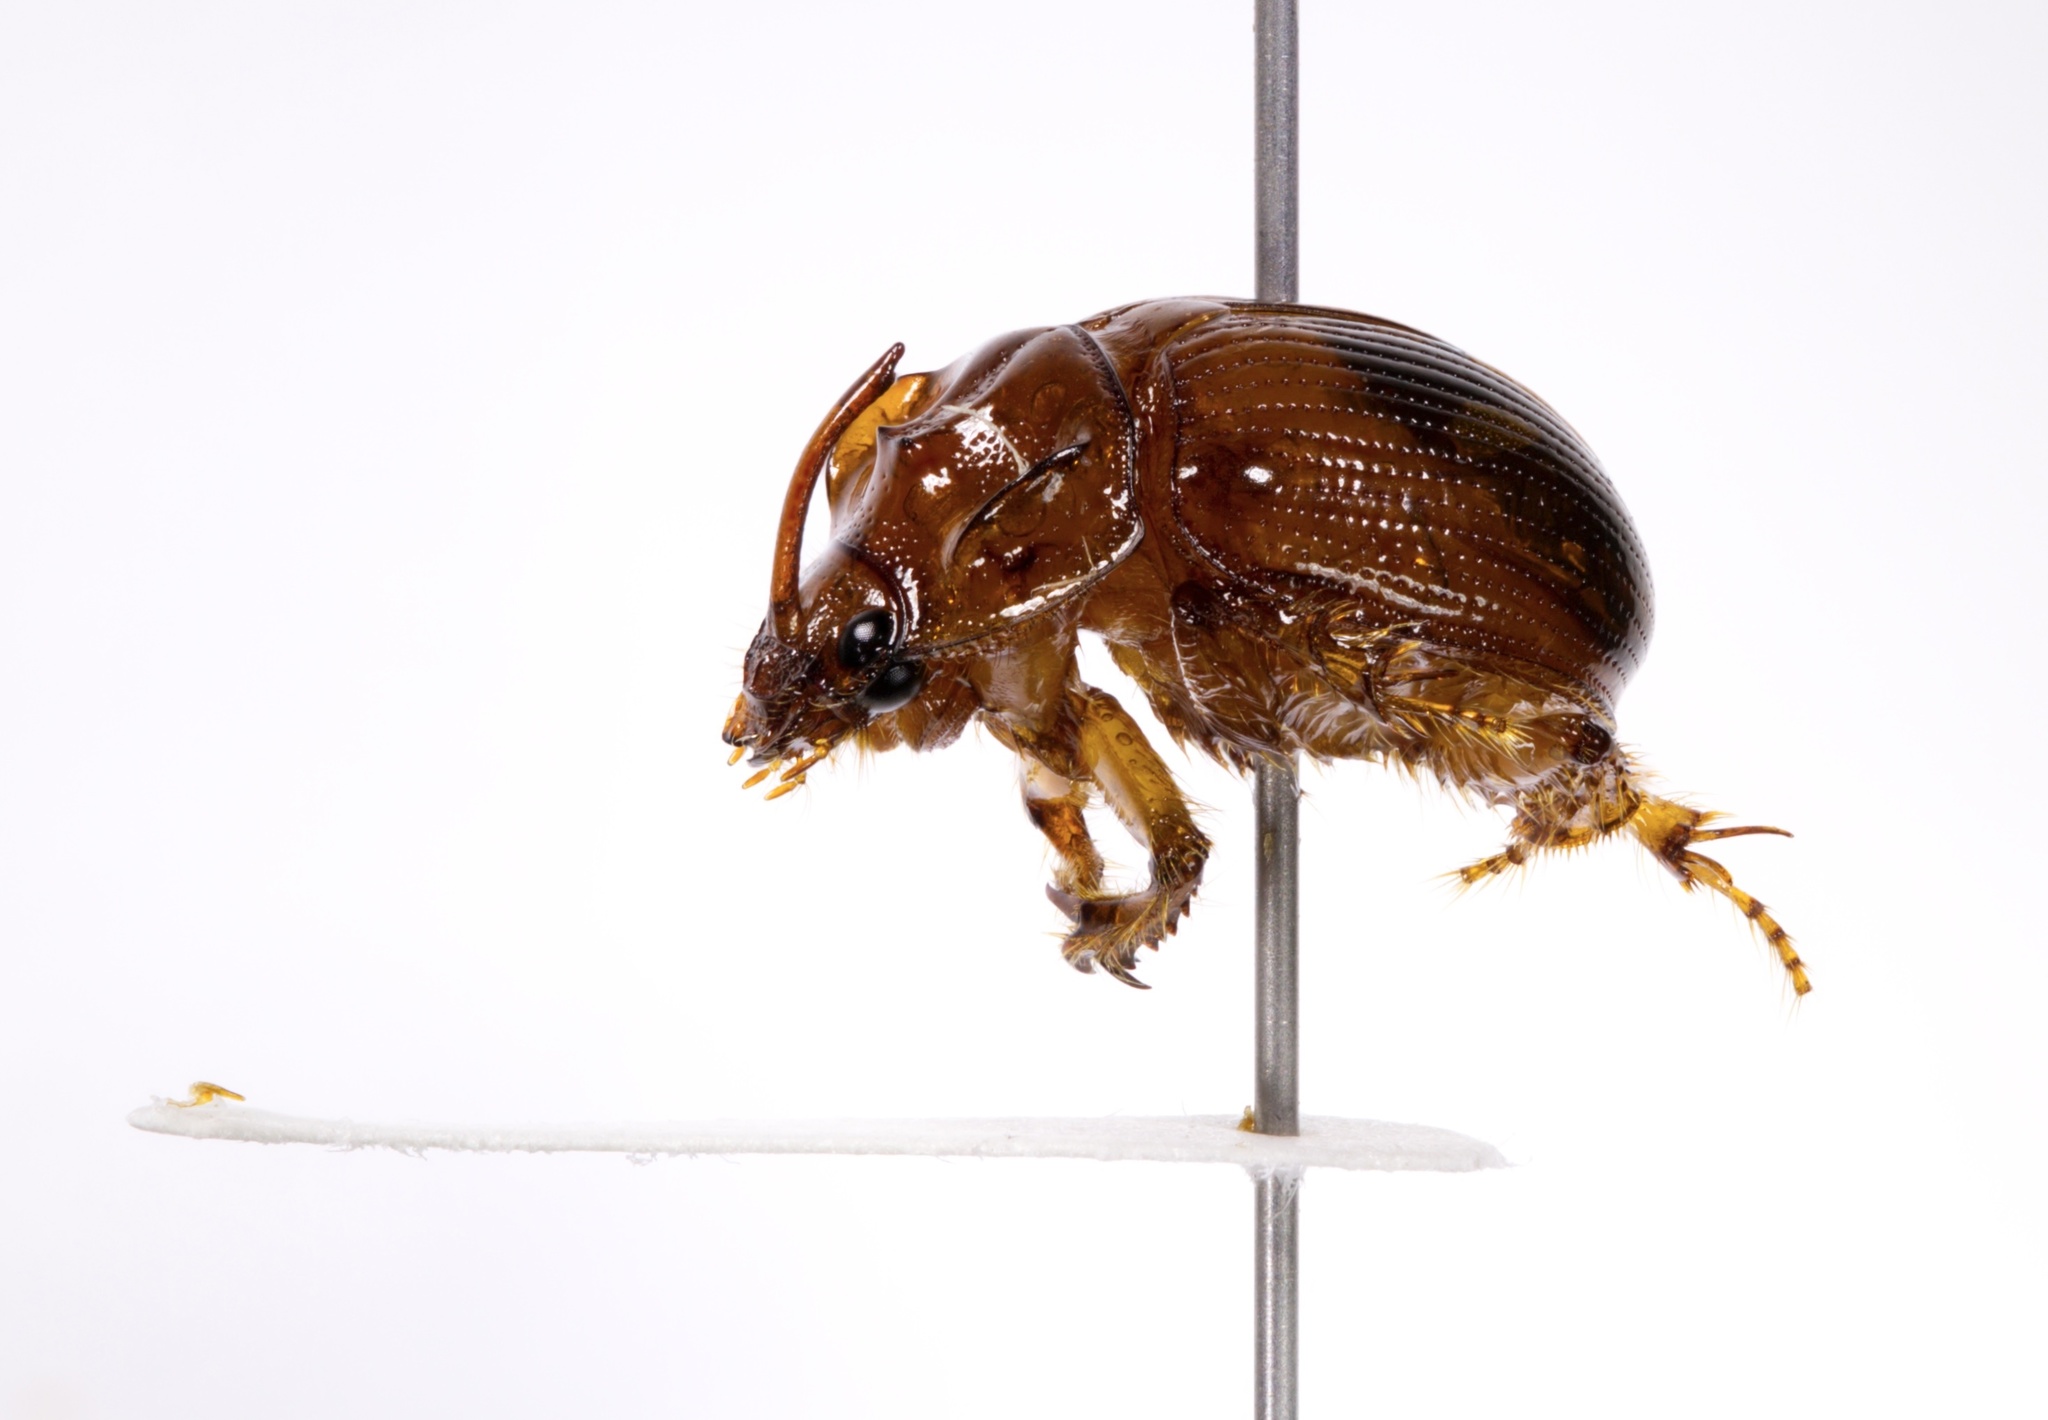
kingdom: Animalia
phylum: Arthropoda
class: Insecta
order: Coleoptera
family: Geotrupidae
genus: Odonteus
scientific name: Odonteus darlingtoni
